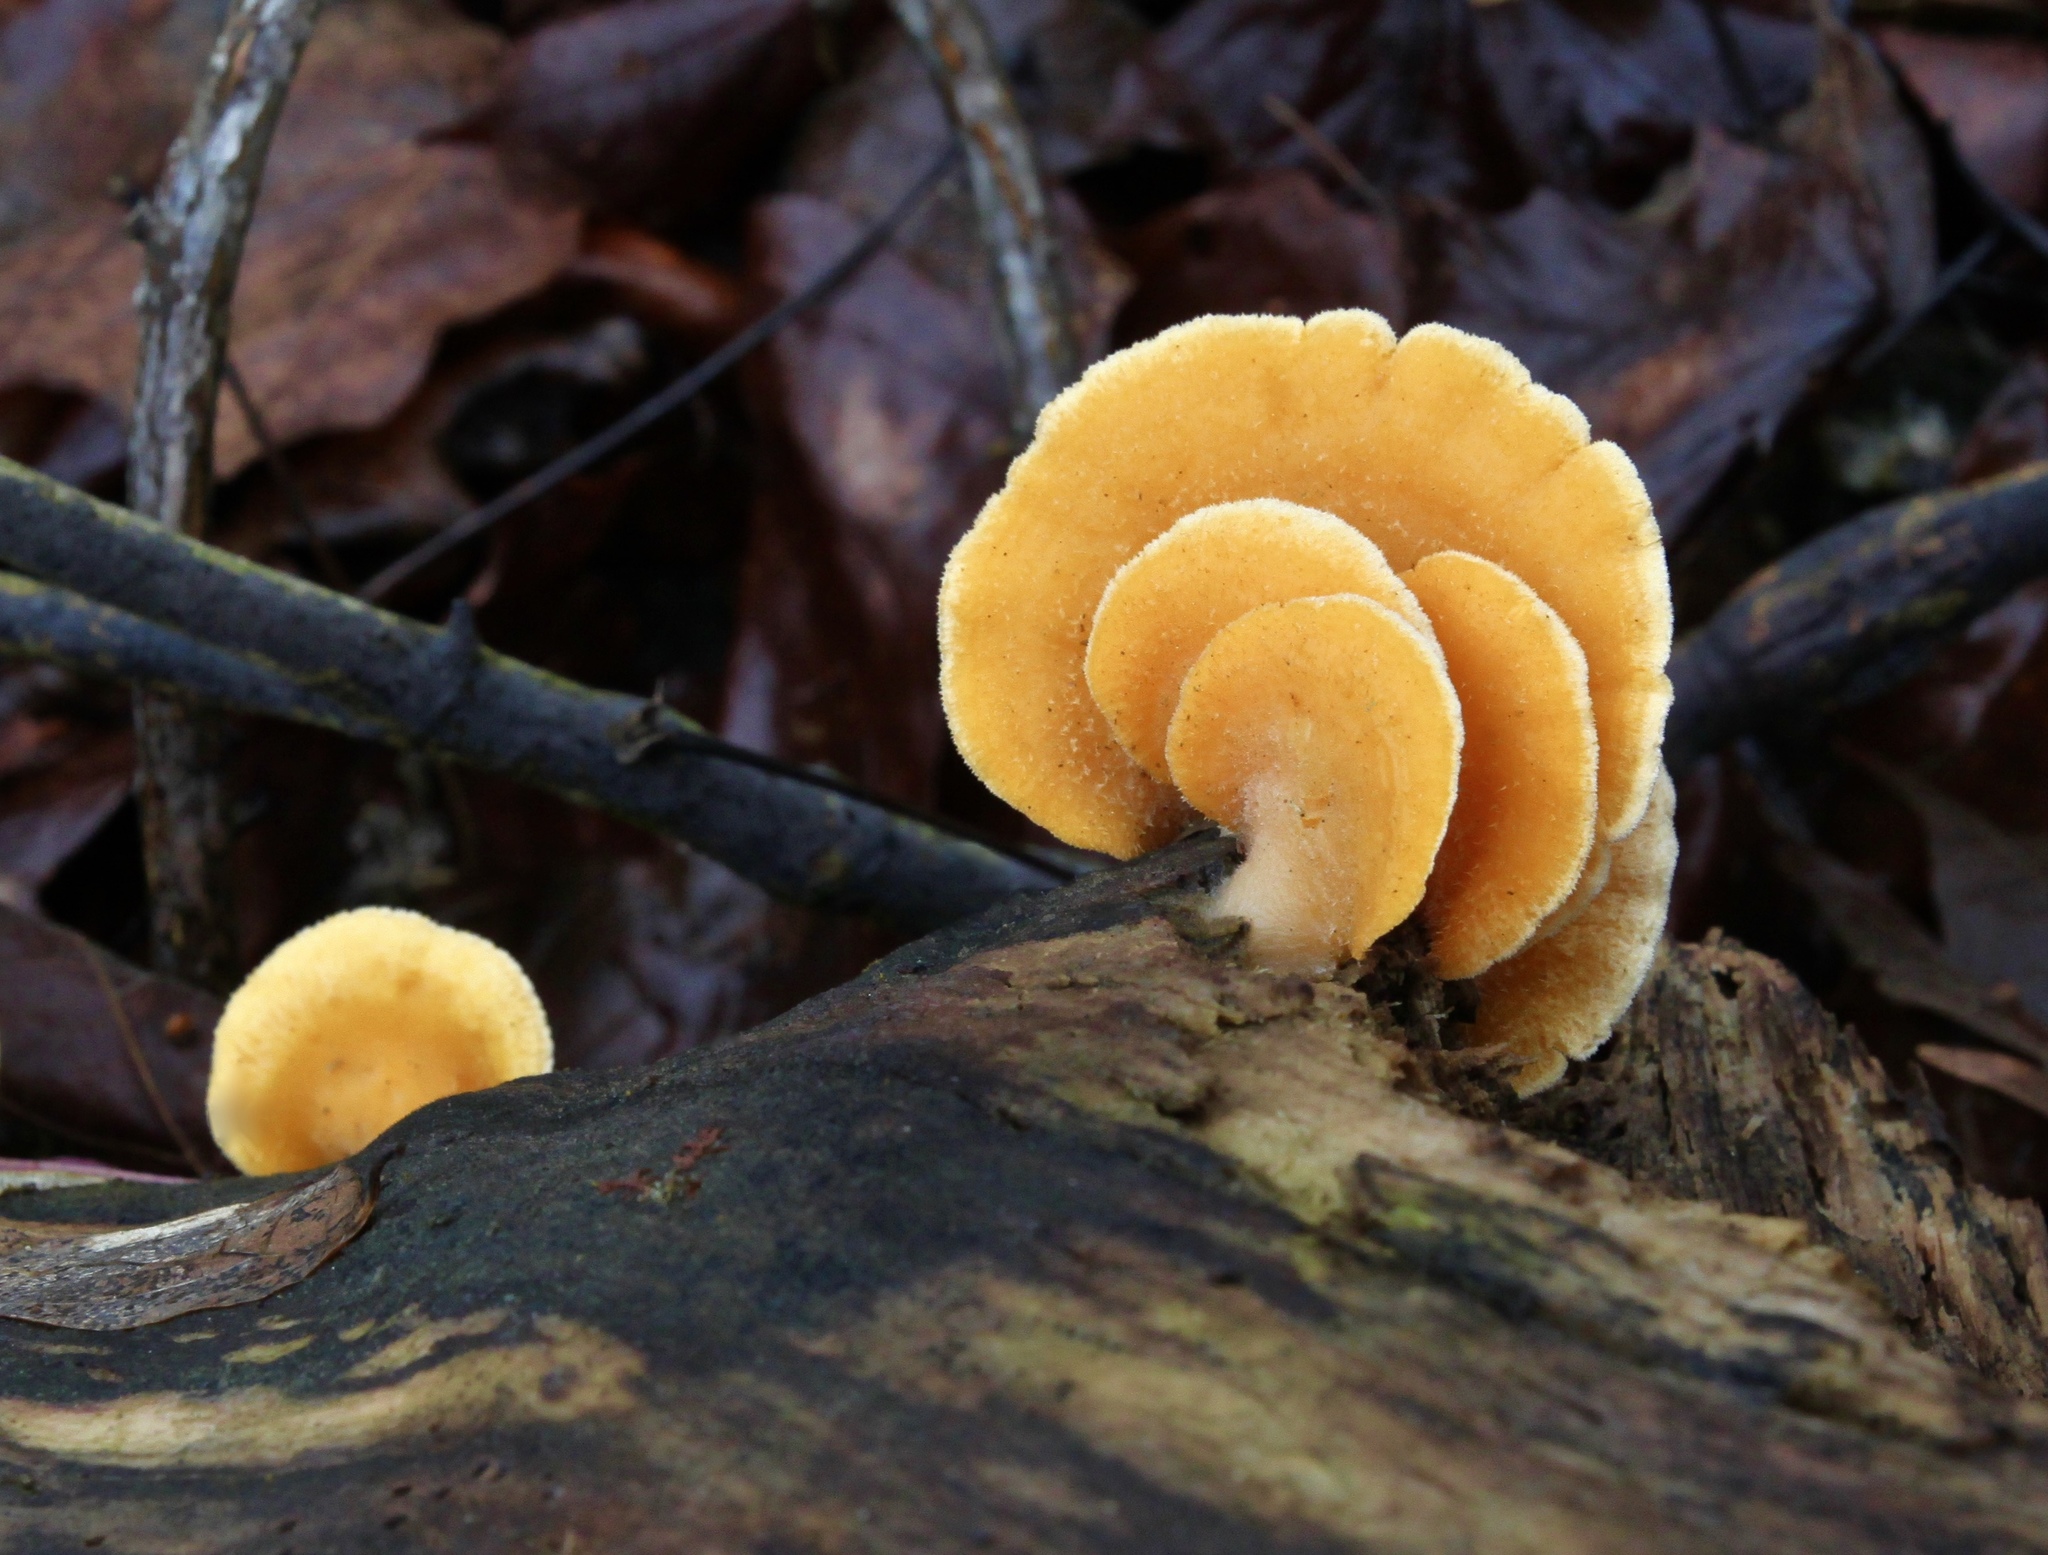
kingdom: Fungi
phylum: Basidiomycota
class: Agaricomycetes
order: Agaricales
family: Phyllotopsidaceae
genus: Phyllotopsis
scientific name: Phyllotopsis nidulans
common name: Orange mock oyster
